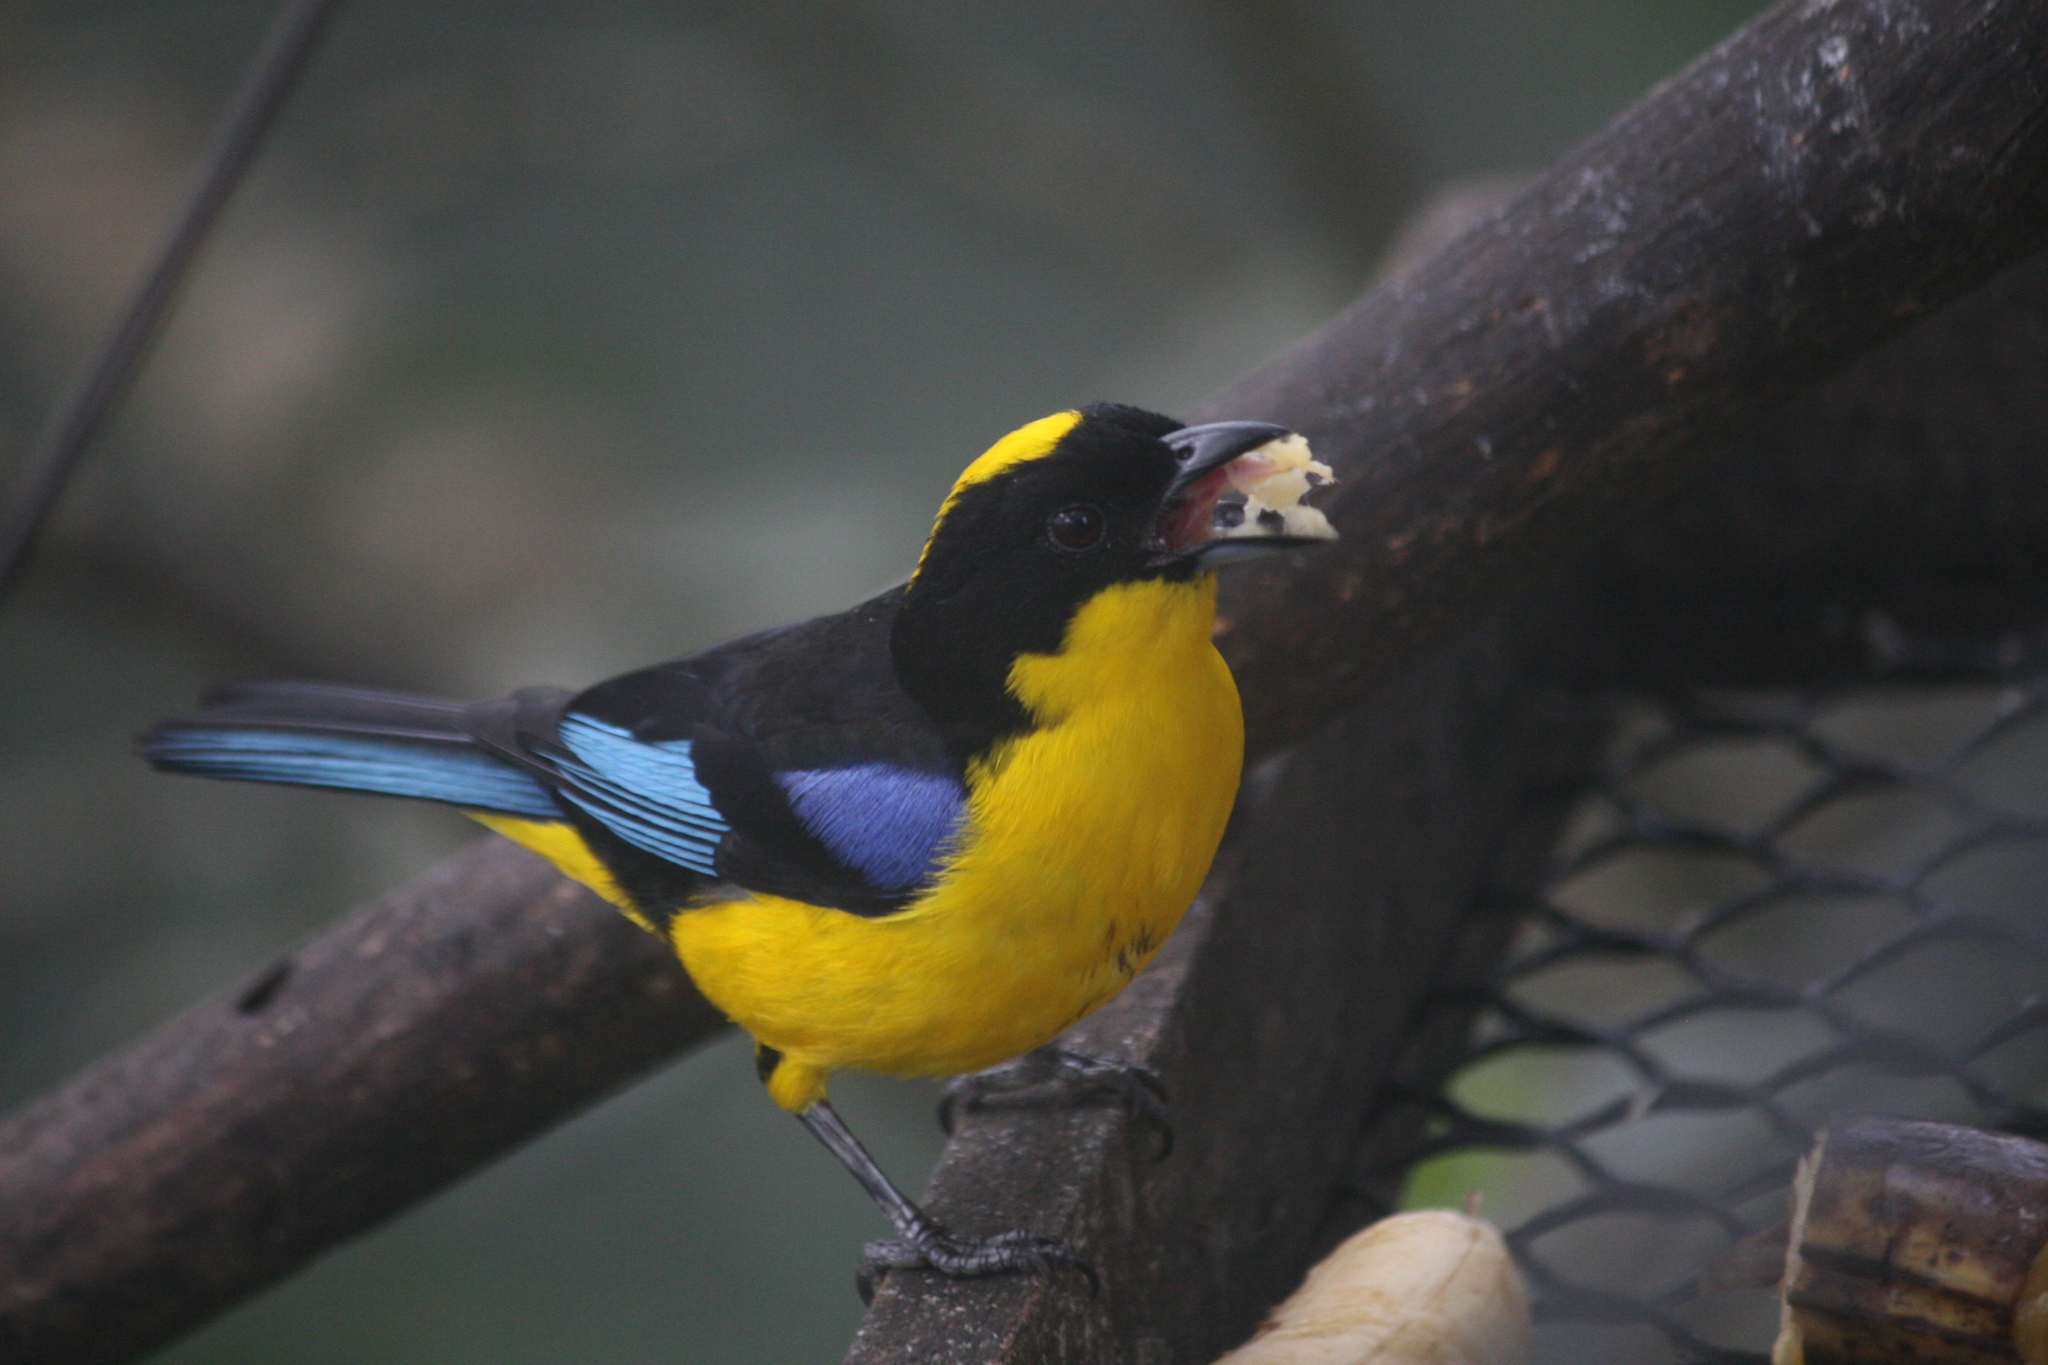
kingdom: Animalia
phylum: Chordata
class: Aves
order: Passeriformes
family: Thraupidae
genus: Anisognathus
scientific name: Anisognathus somptuosus
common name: Blue-winged mountain-tanager
